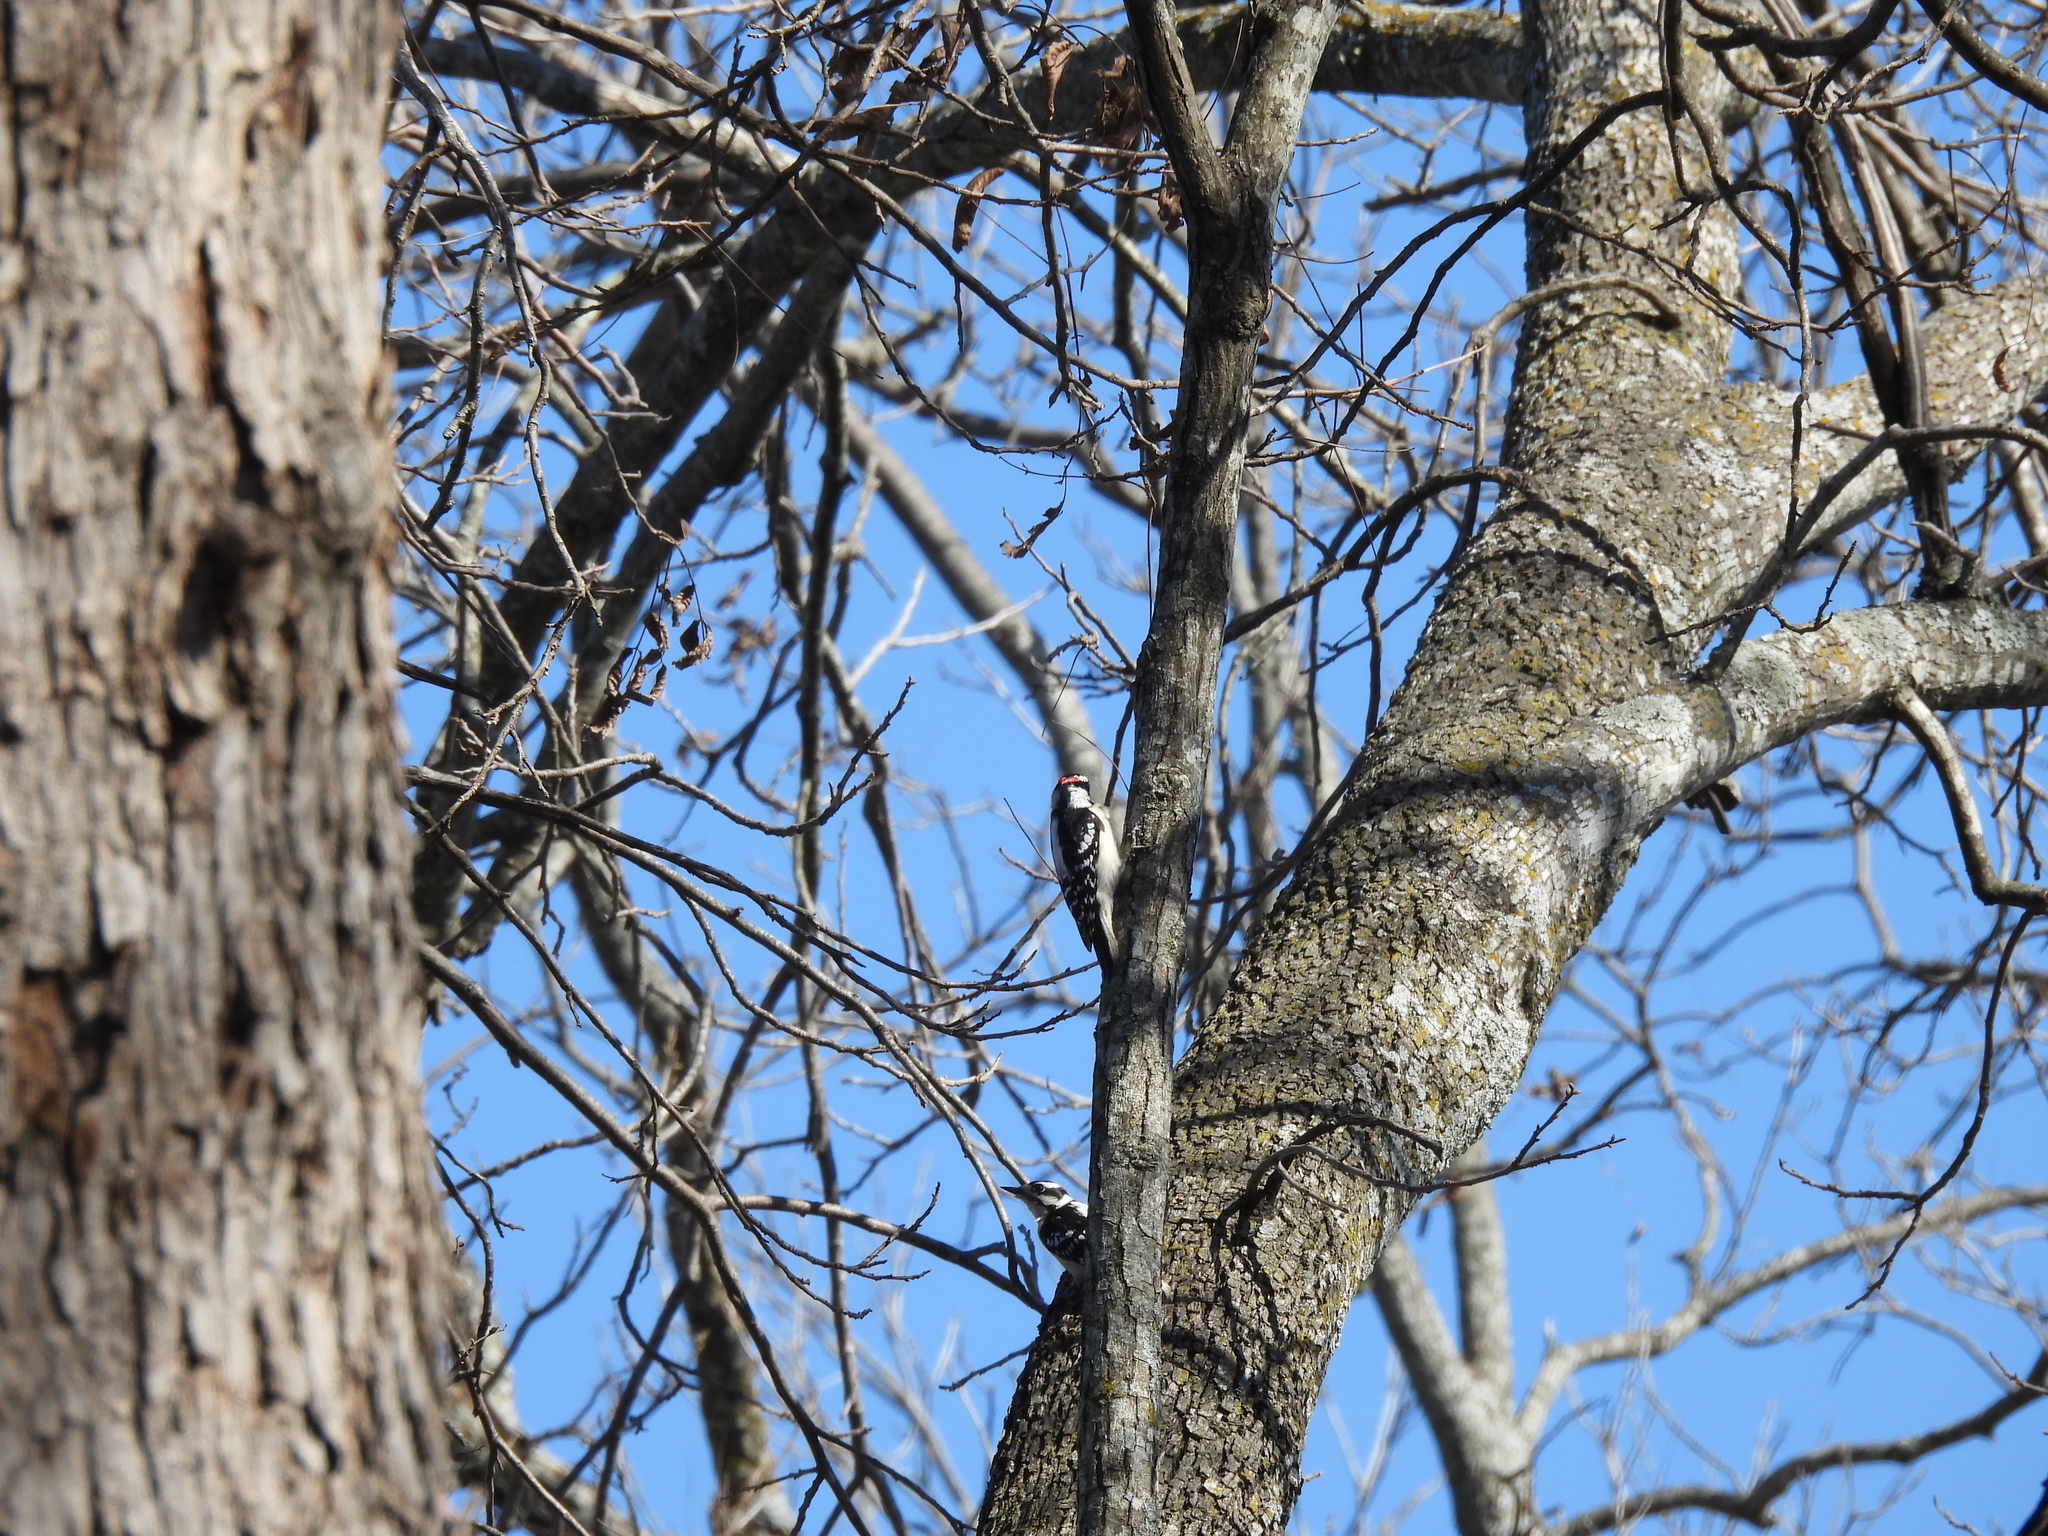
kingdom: Animalia
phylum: Chordata
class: Aves
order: Piciformes
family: Picidae
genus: Dryobates
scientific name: Dryobates pubescens
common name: Downy woodpecker
